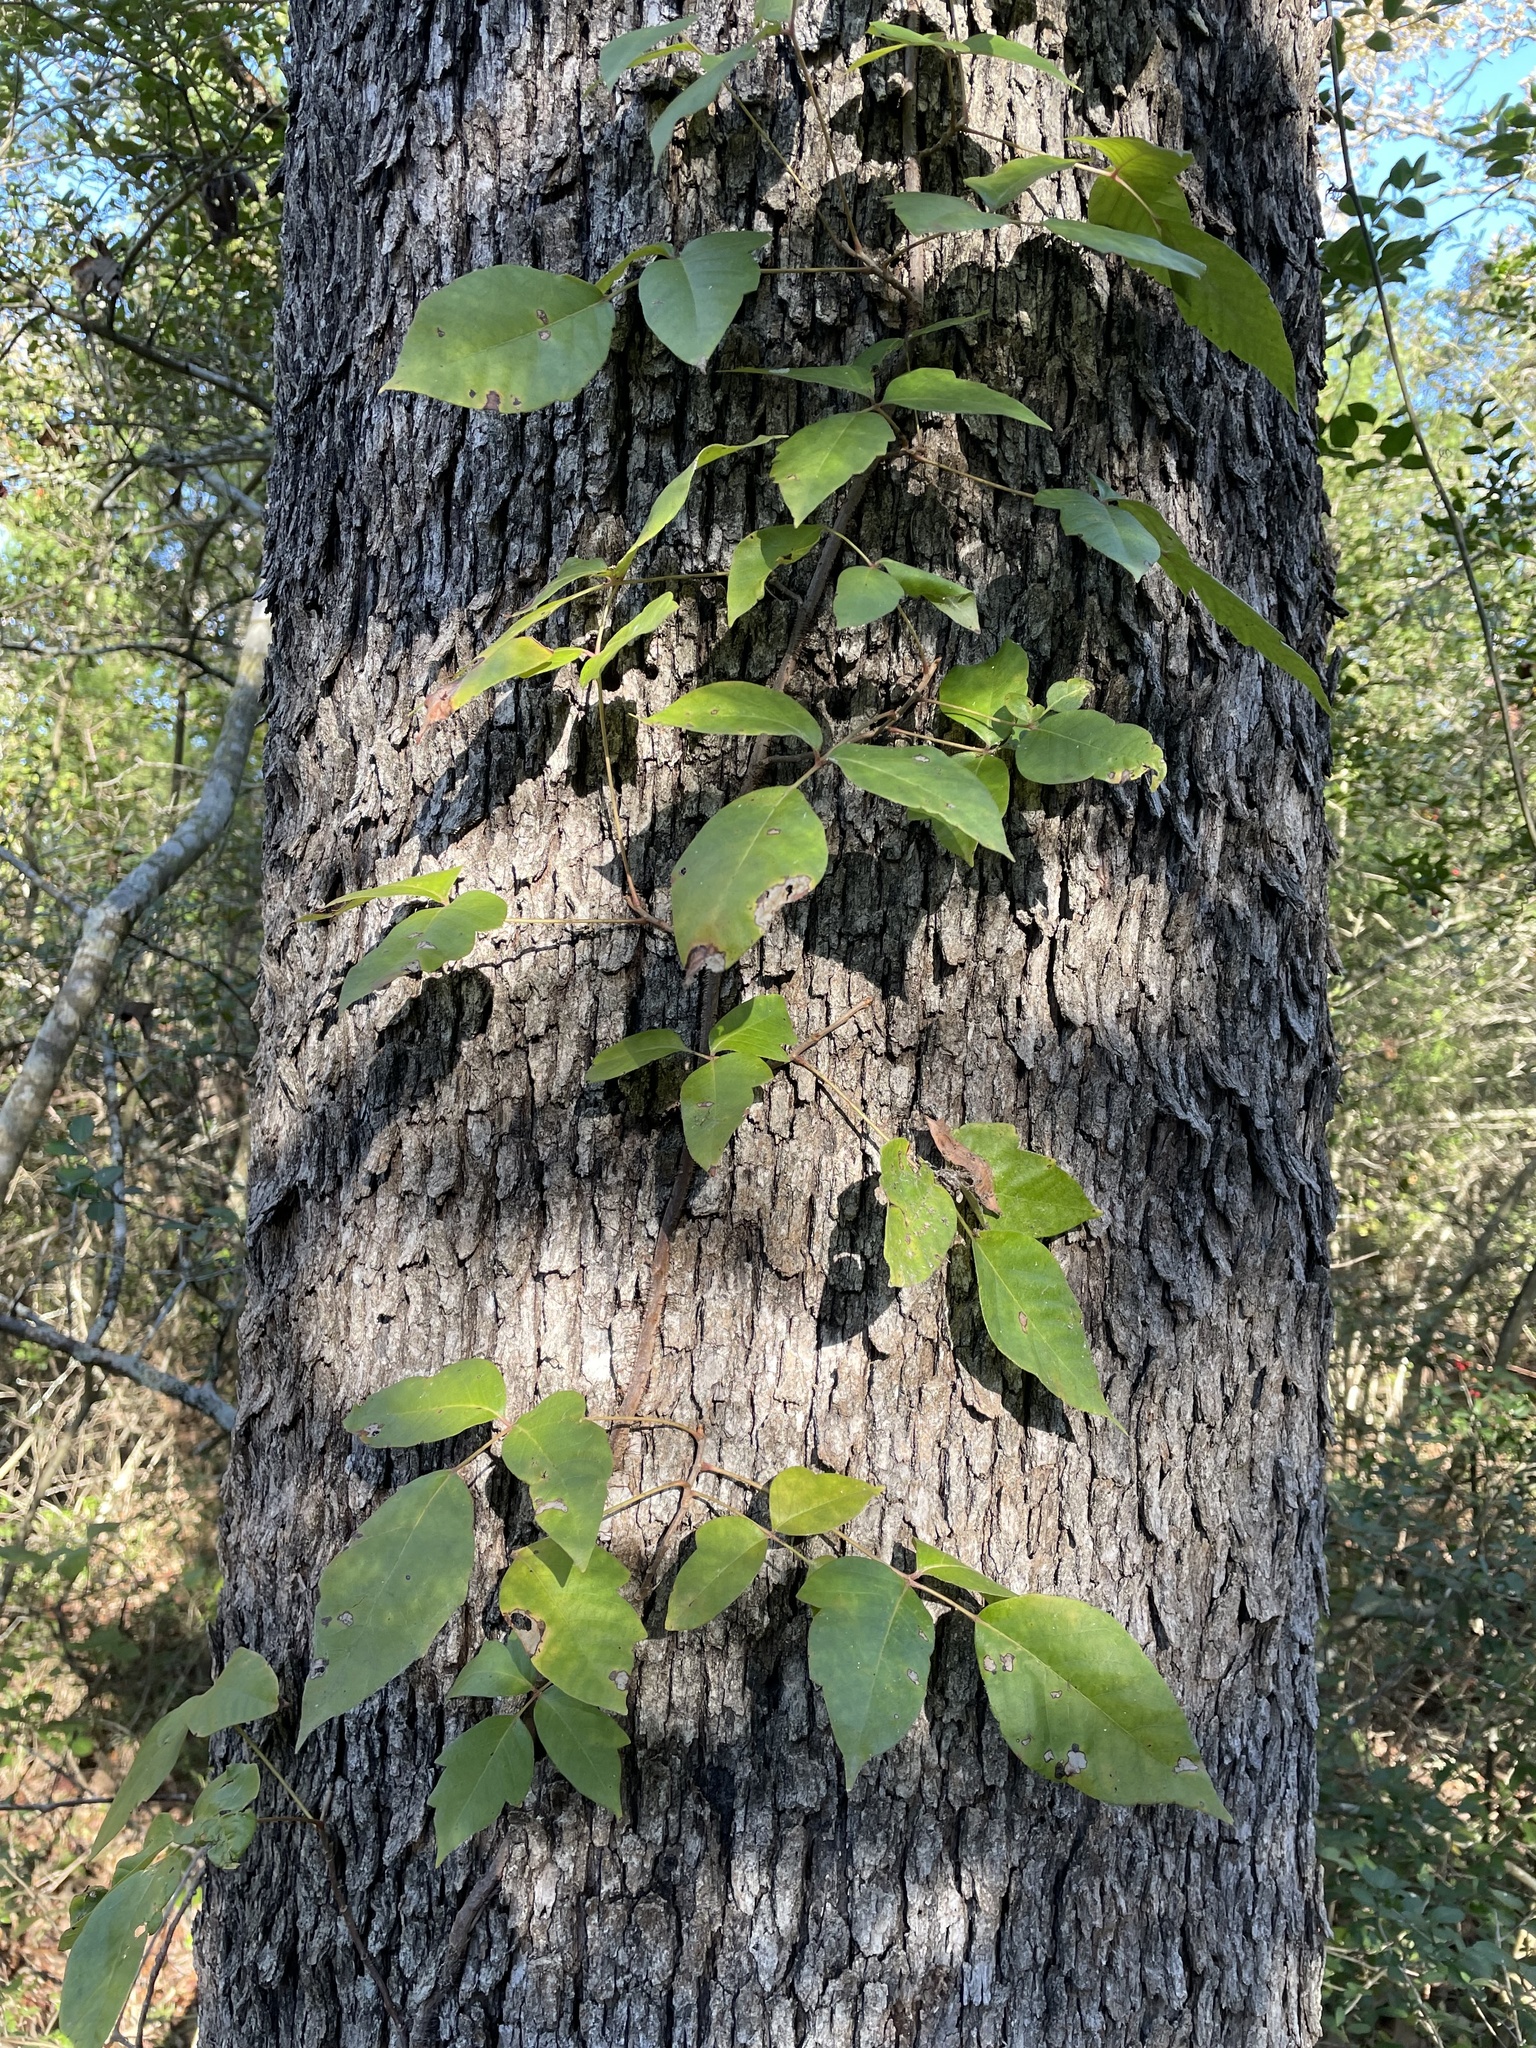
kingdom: Plantae
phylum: Tracheophyta
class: Magnoliopsida
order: Sapindales
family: Anacardiaceae
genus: Toxicodendron
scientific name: Toxicodendron radicans
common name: Poison ivy
